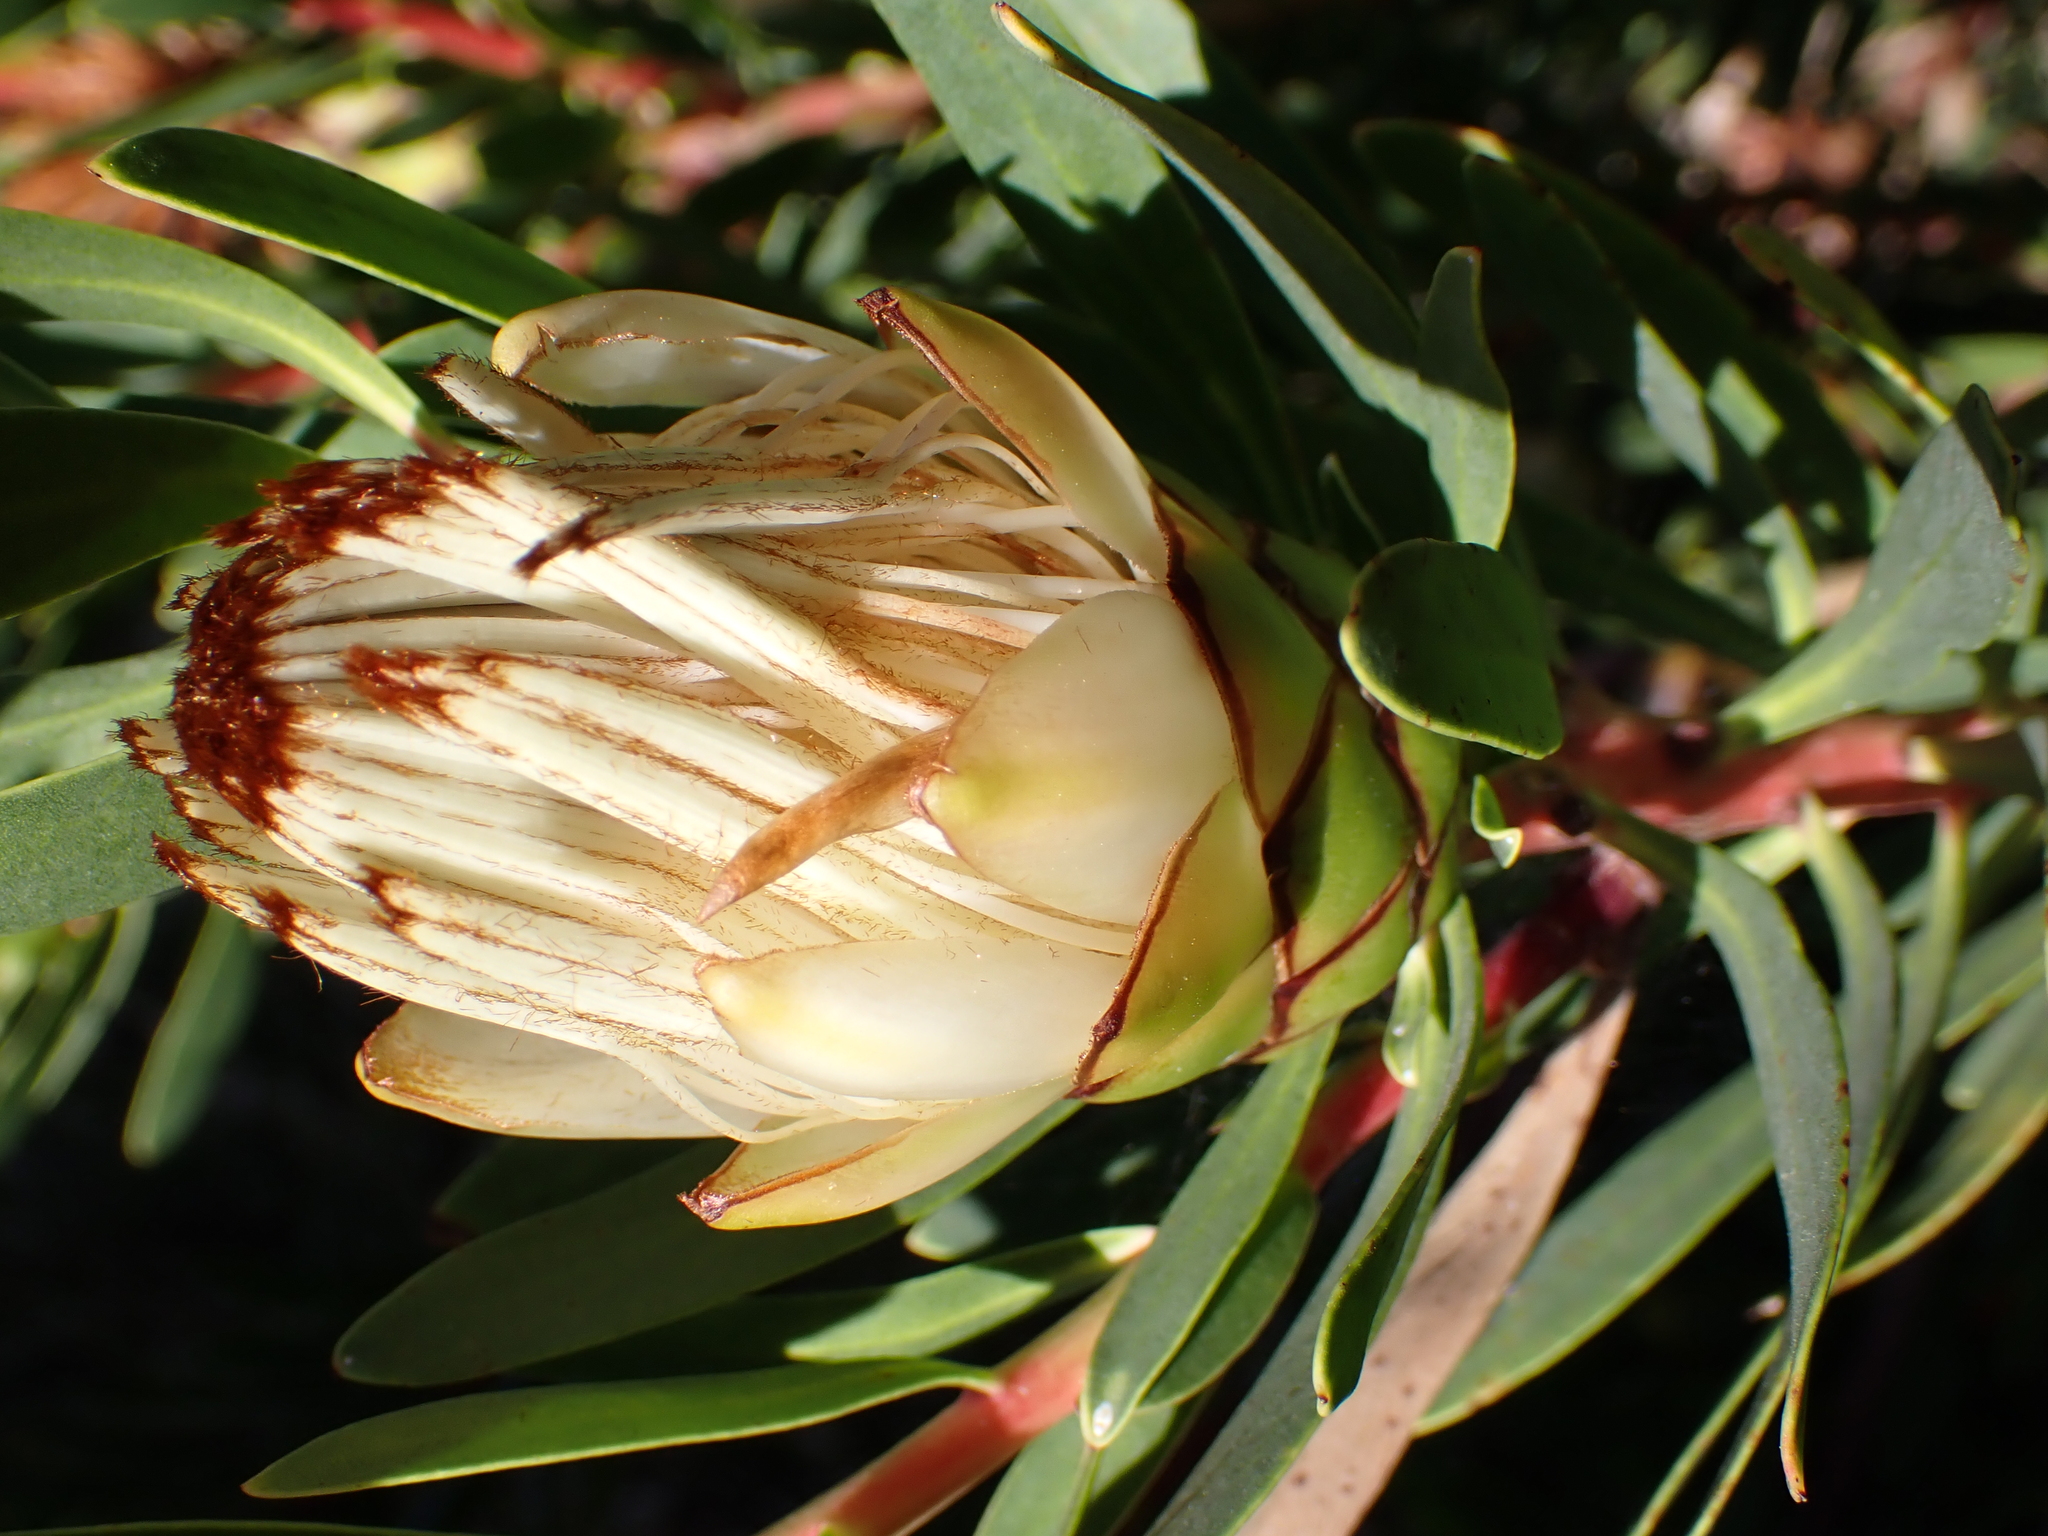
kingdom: Plantae
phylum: Tracheophyta
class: Magnoliopsida
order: Proteales
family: Proteaceae
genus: Protea
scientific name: Protea lanceolata
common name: Lance-leaved protea
